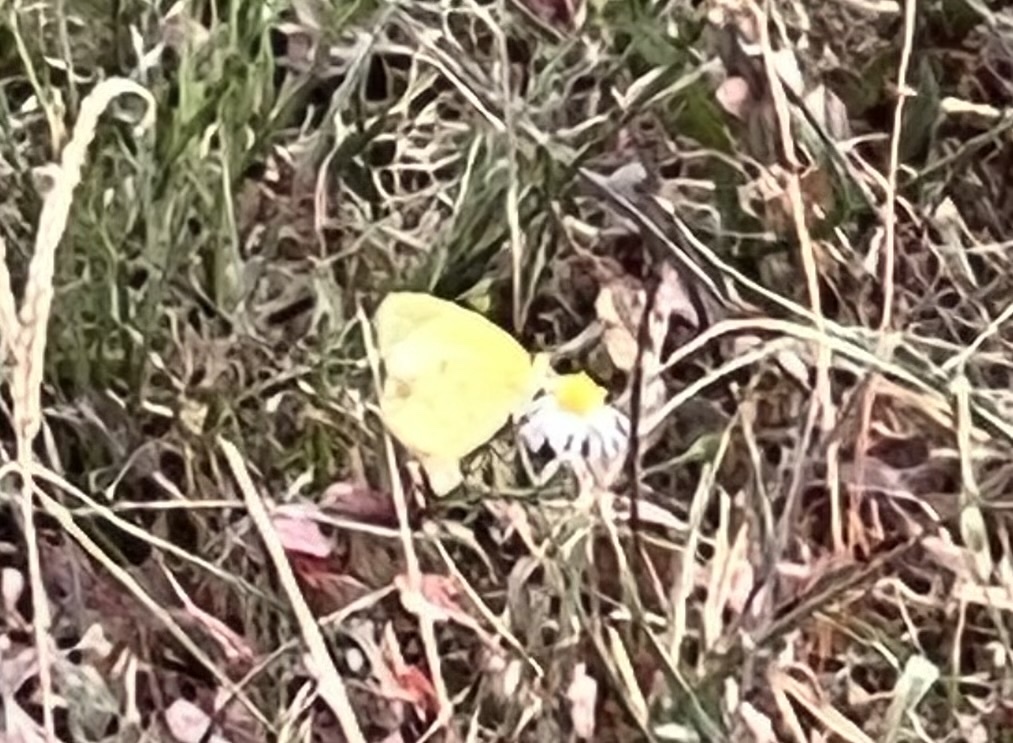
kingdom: Animalia
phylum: Arthropoda
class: Insecta
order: Lepidoptera
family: Pieridae
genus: Pyrisitia
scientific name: Pyrisitia lisa
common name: Little yellow
